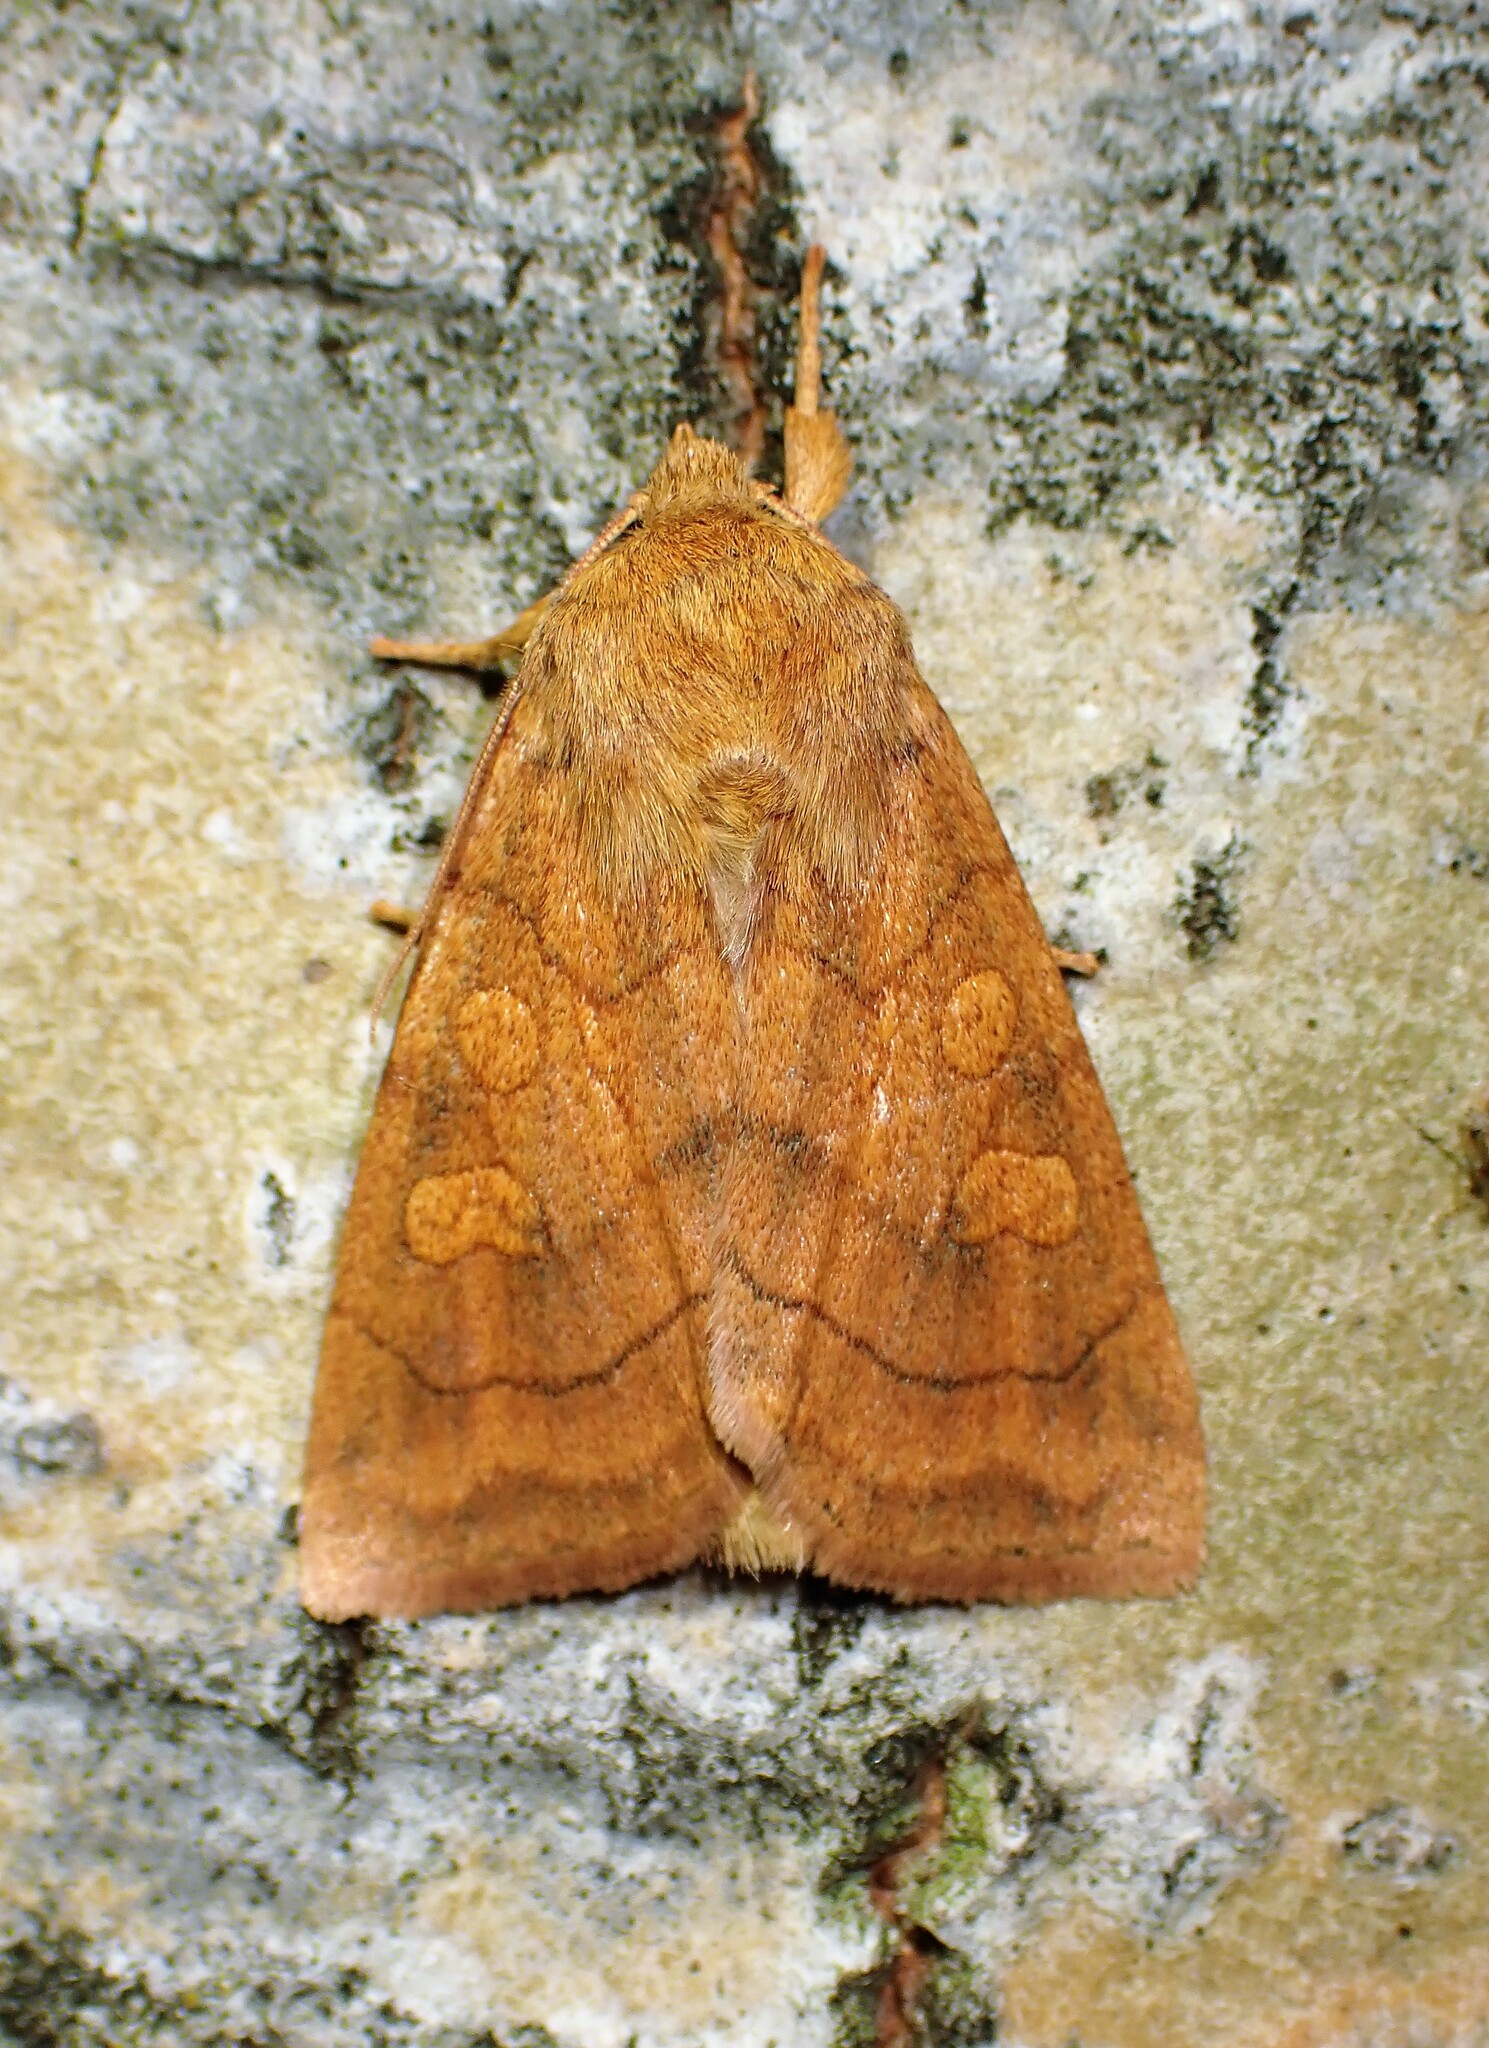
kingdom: Animalia
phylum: Arthropoda
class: Insecta
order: Lepidoptera
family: Noctuidae
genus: Enargia
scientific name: Enargia decolor
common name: Aspen twoleaf tier moth
